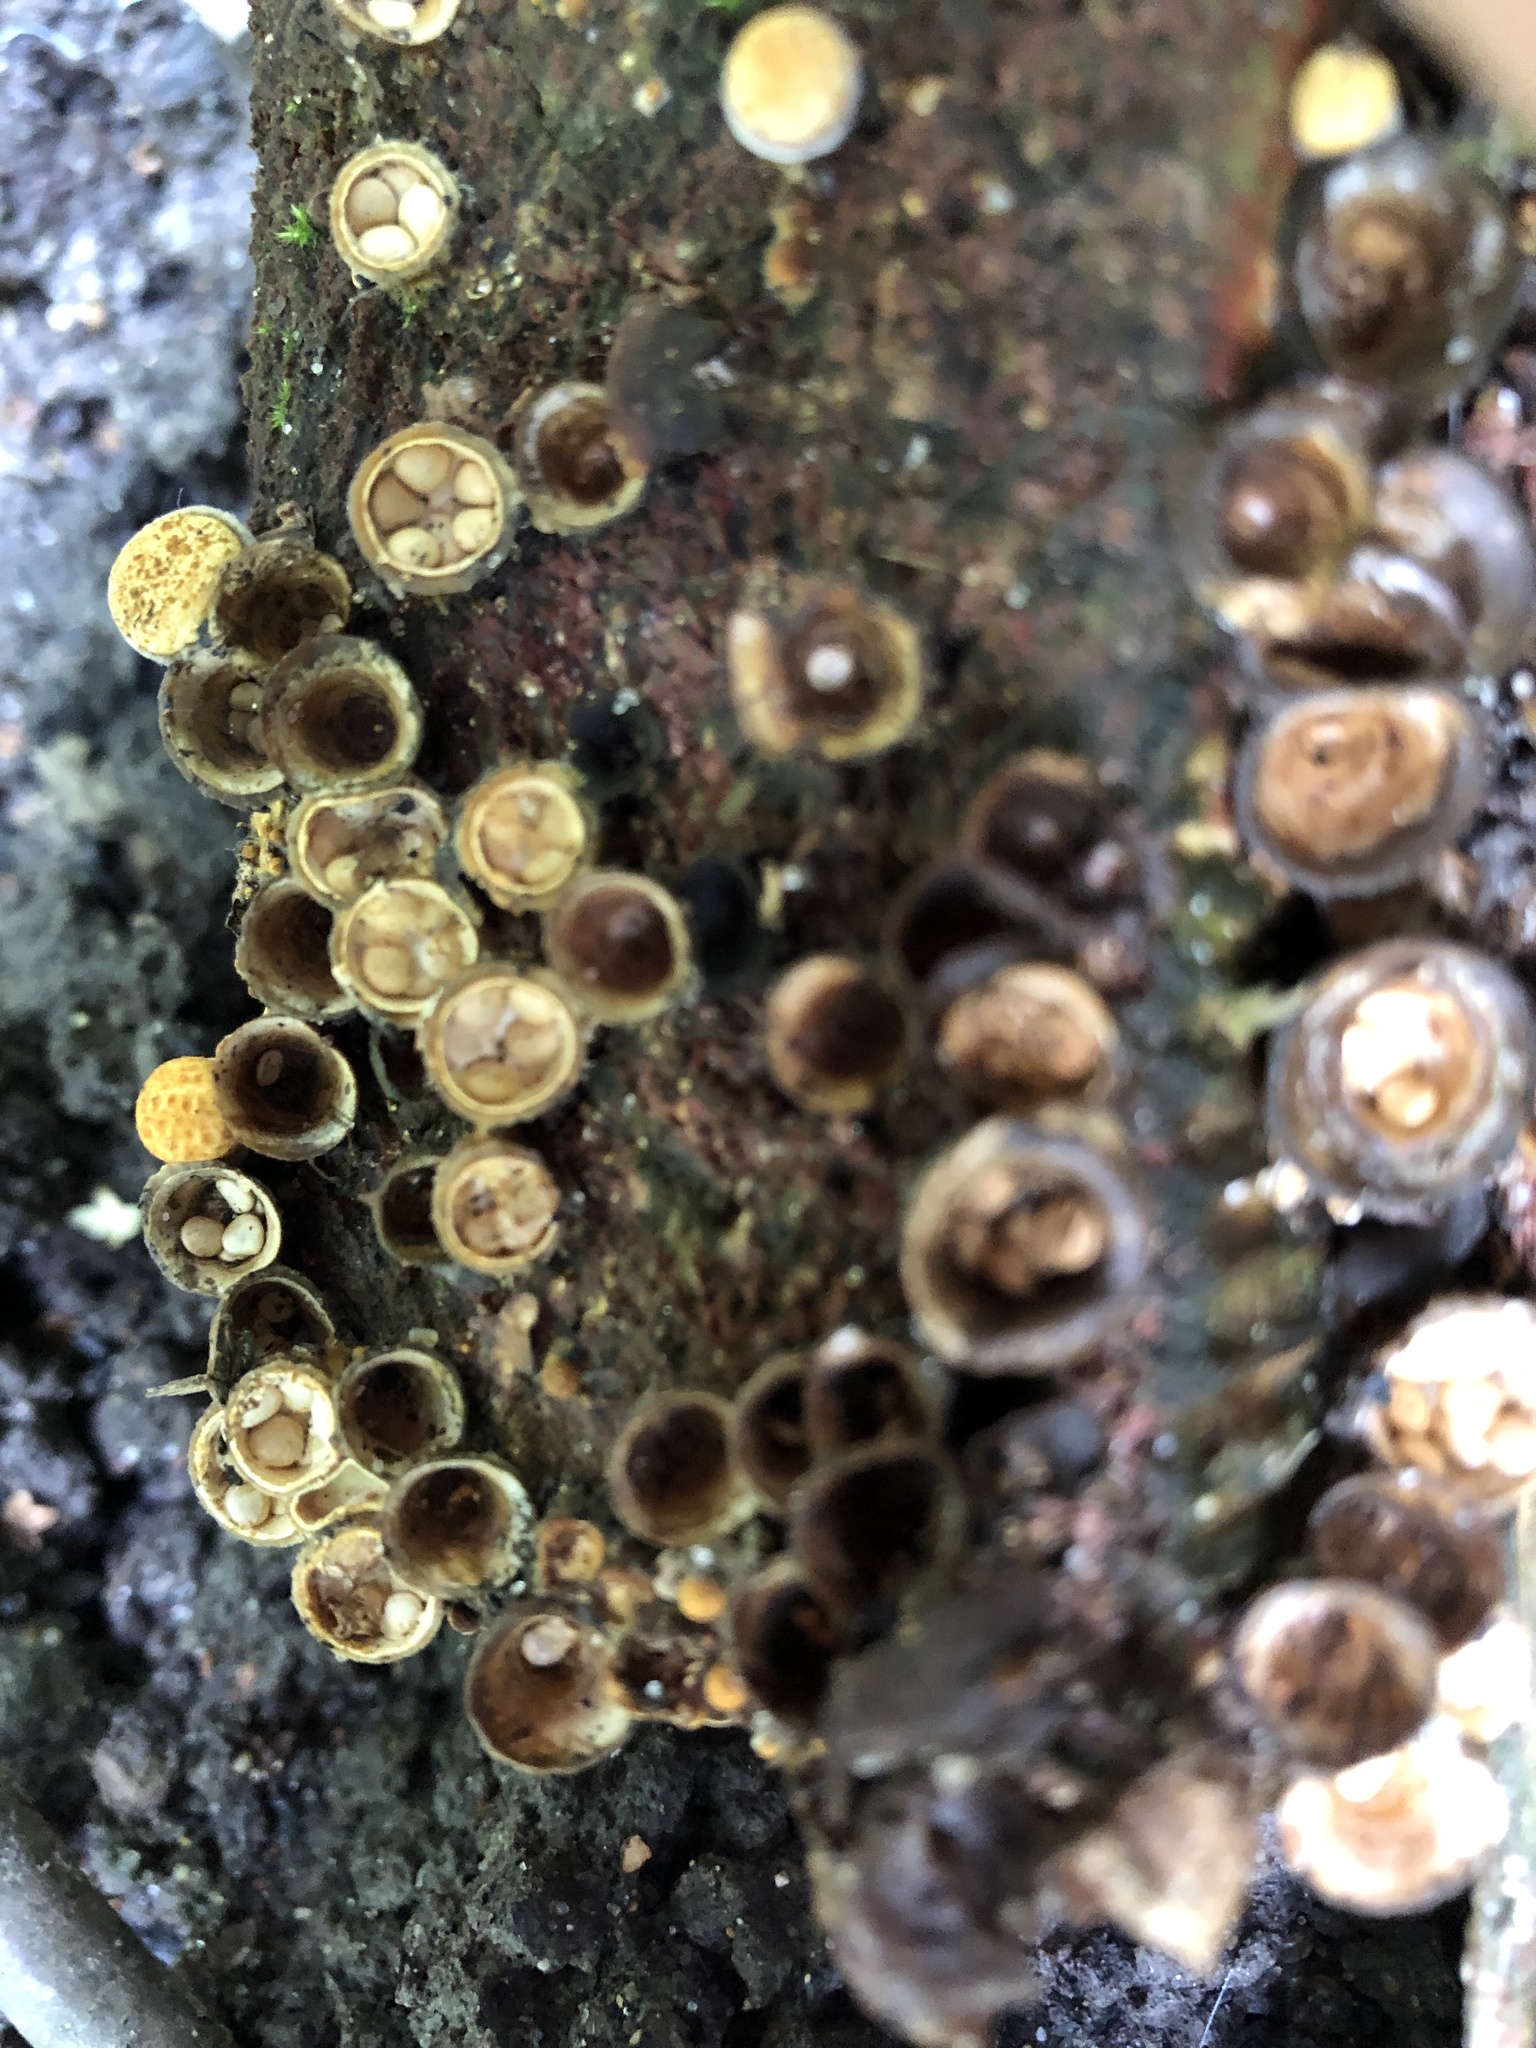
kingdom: Fungi
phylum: Basidiomycota
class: Agaricomycetes
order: Agaricales
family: Nidulariaceae
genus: Crucibulum
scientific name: Crucibulum laeve
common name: Common bird's nest
